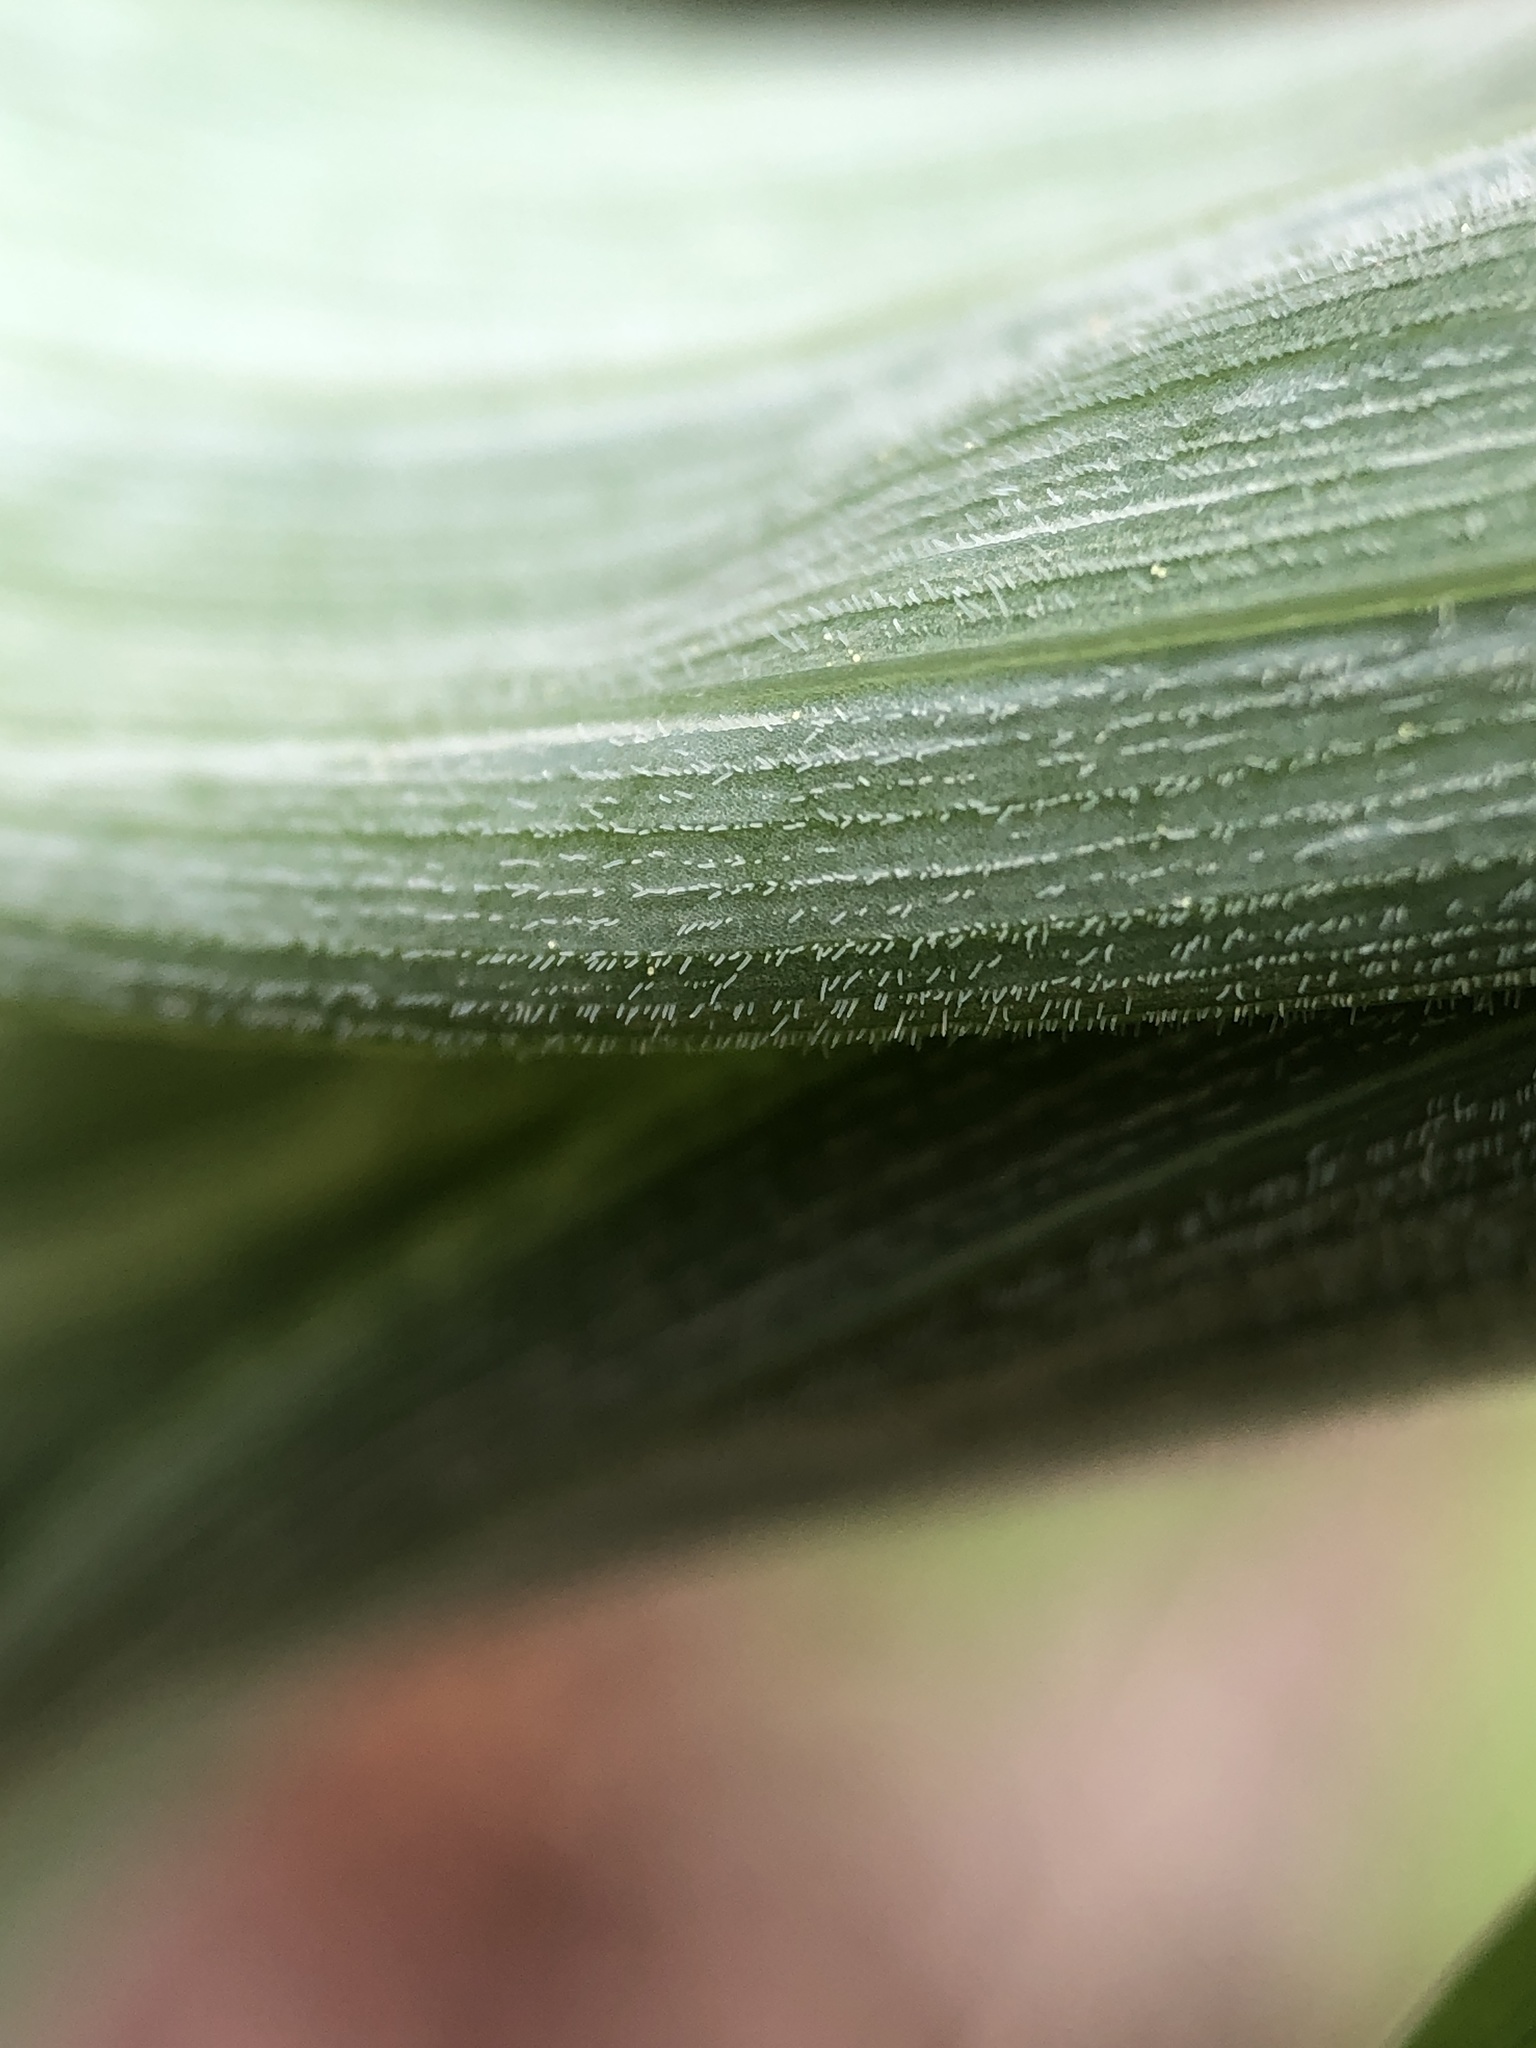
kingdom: Plantae
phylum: Tracheophyta
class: Liliopsida
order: Asparagales
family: Asparagaceae
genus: Polygonatum
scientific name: Polygonatum pubescens
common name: Downy solomon's seal
